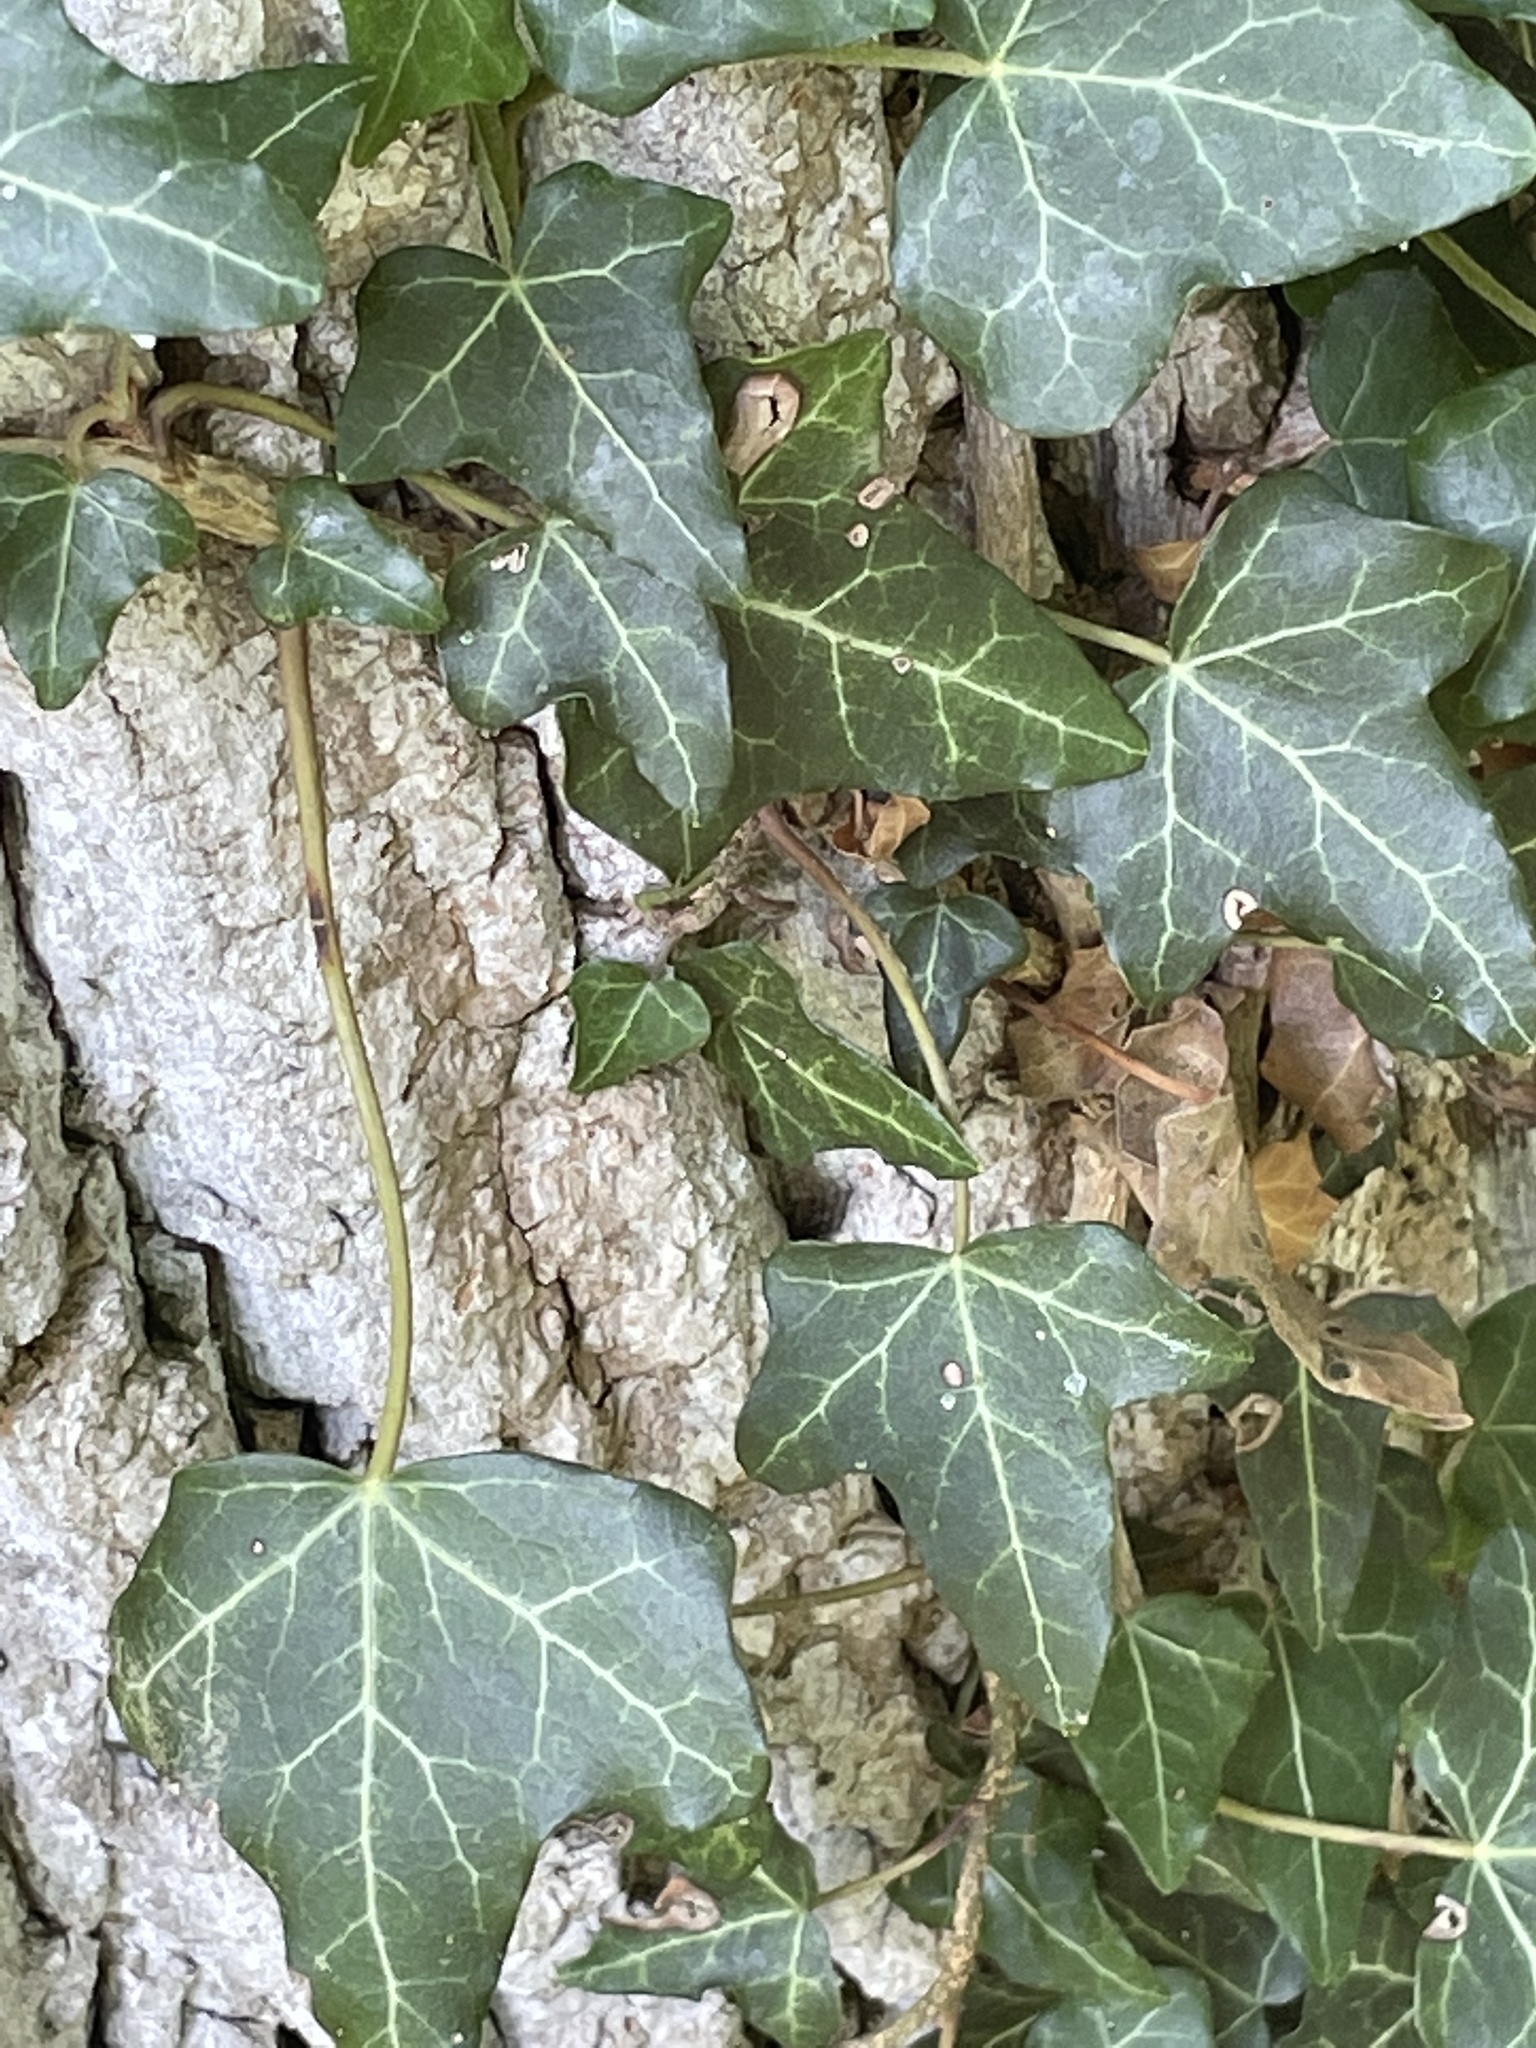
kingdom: Plantae
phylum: Tracheophyta
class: Magnoliopsida
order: Apiales
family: Araliaceae
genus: Hedera
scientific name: Hedera helix
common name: Ivy
